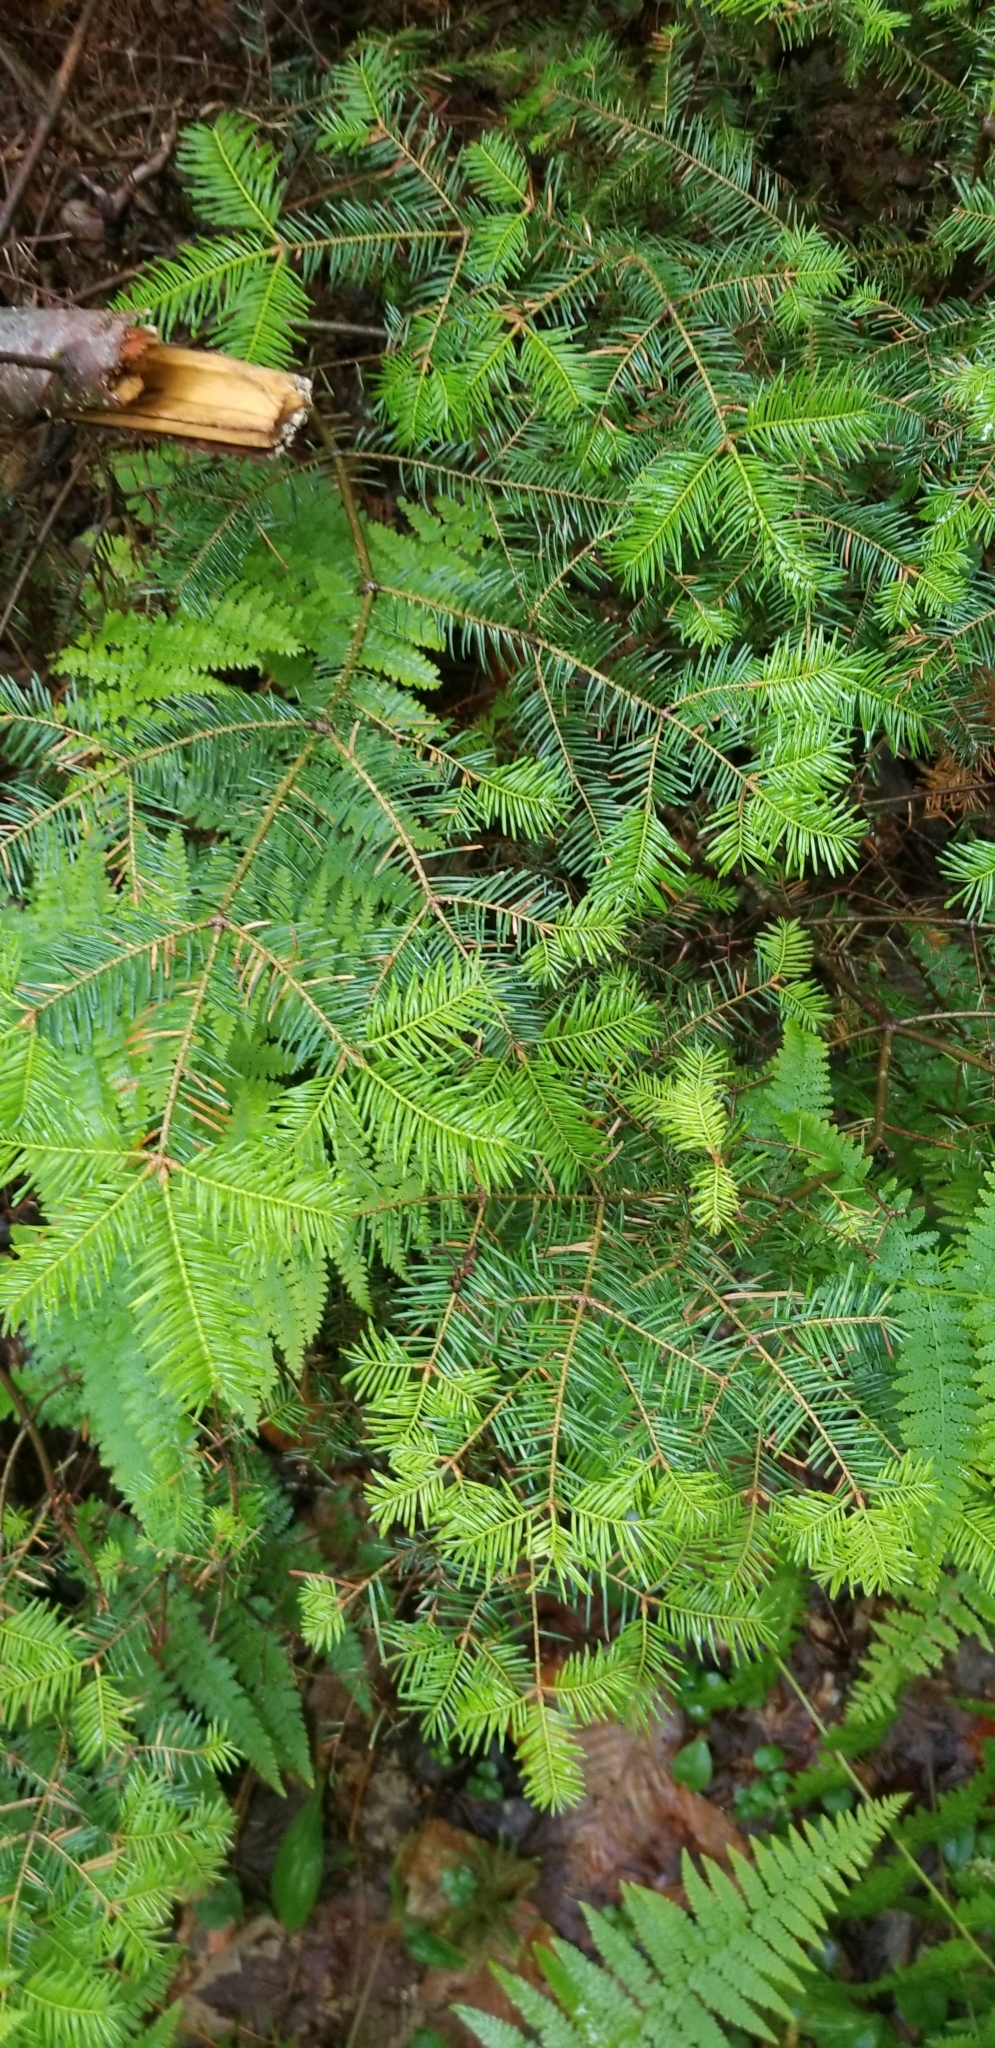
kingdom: Plantae
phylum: Tracheophyta
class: Pinopsida
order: Pinales
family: Pinaceae
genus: Abies
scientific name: Abies balsamea
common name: Balsam fir
